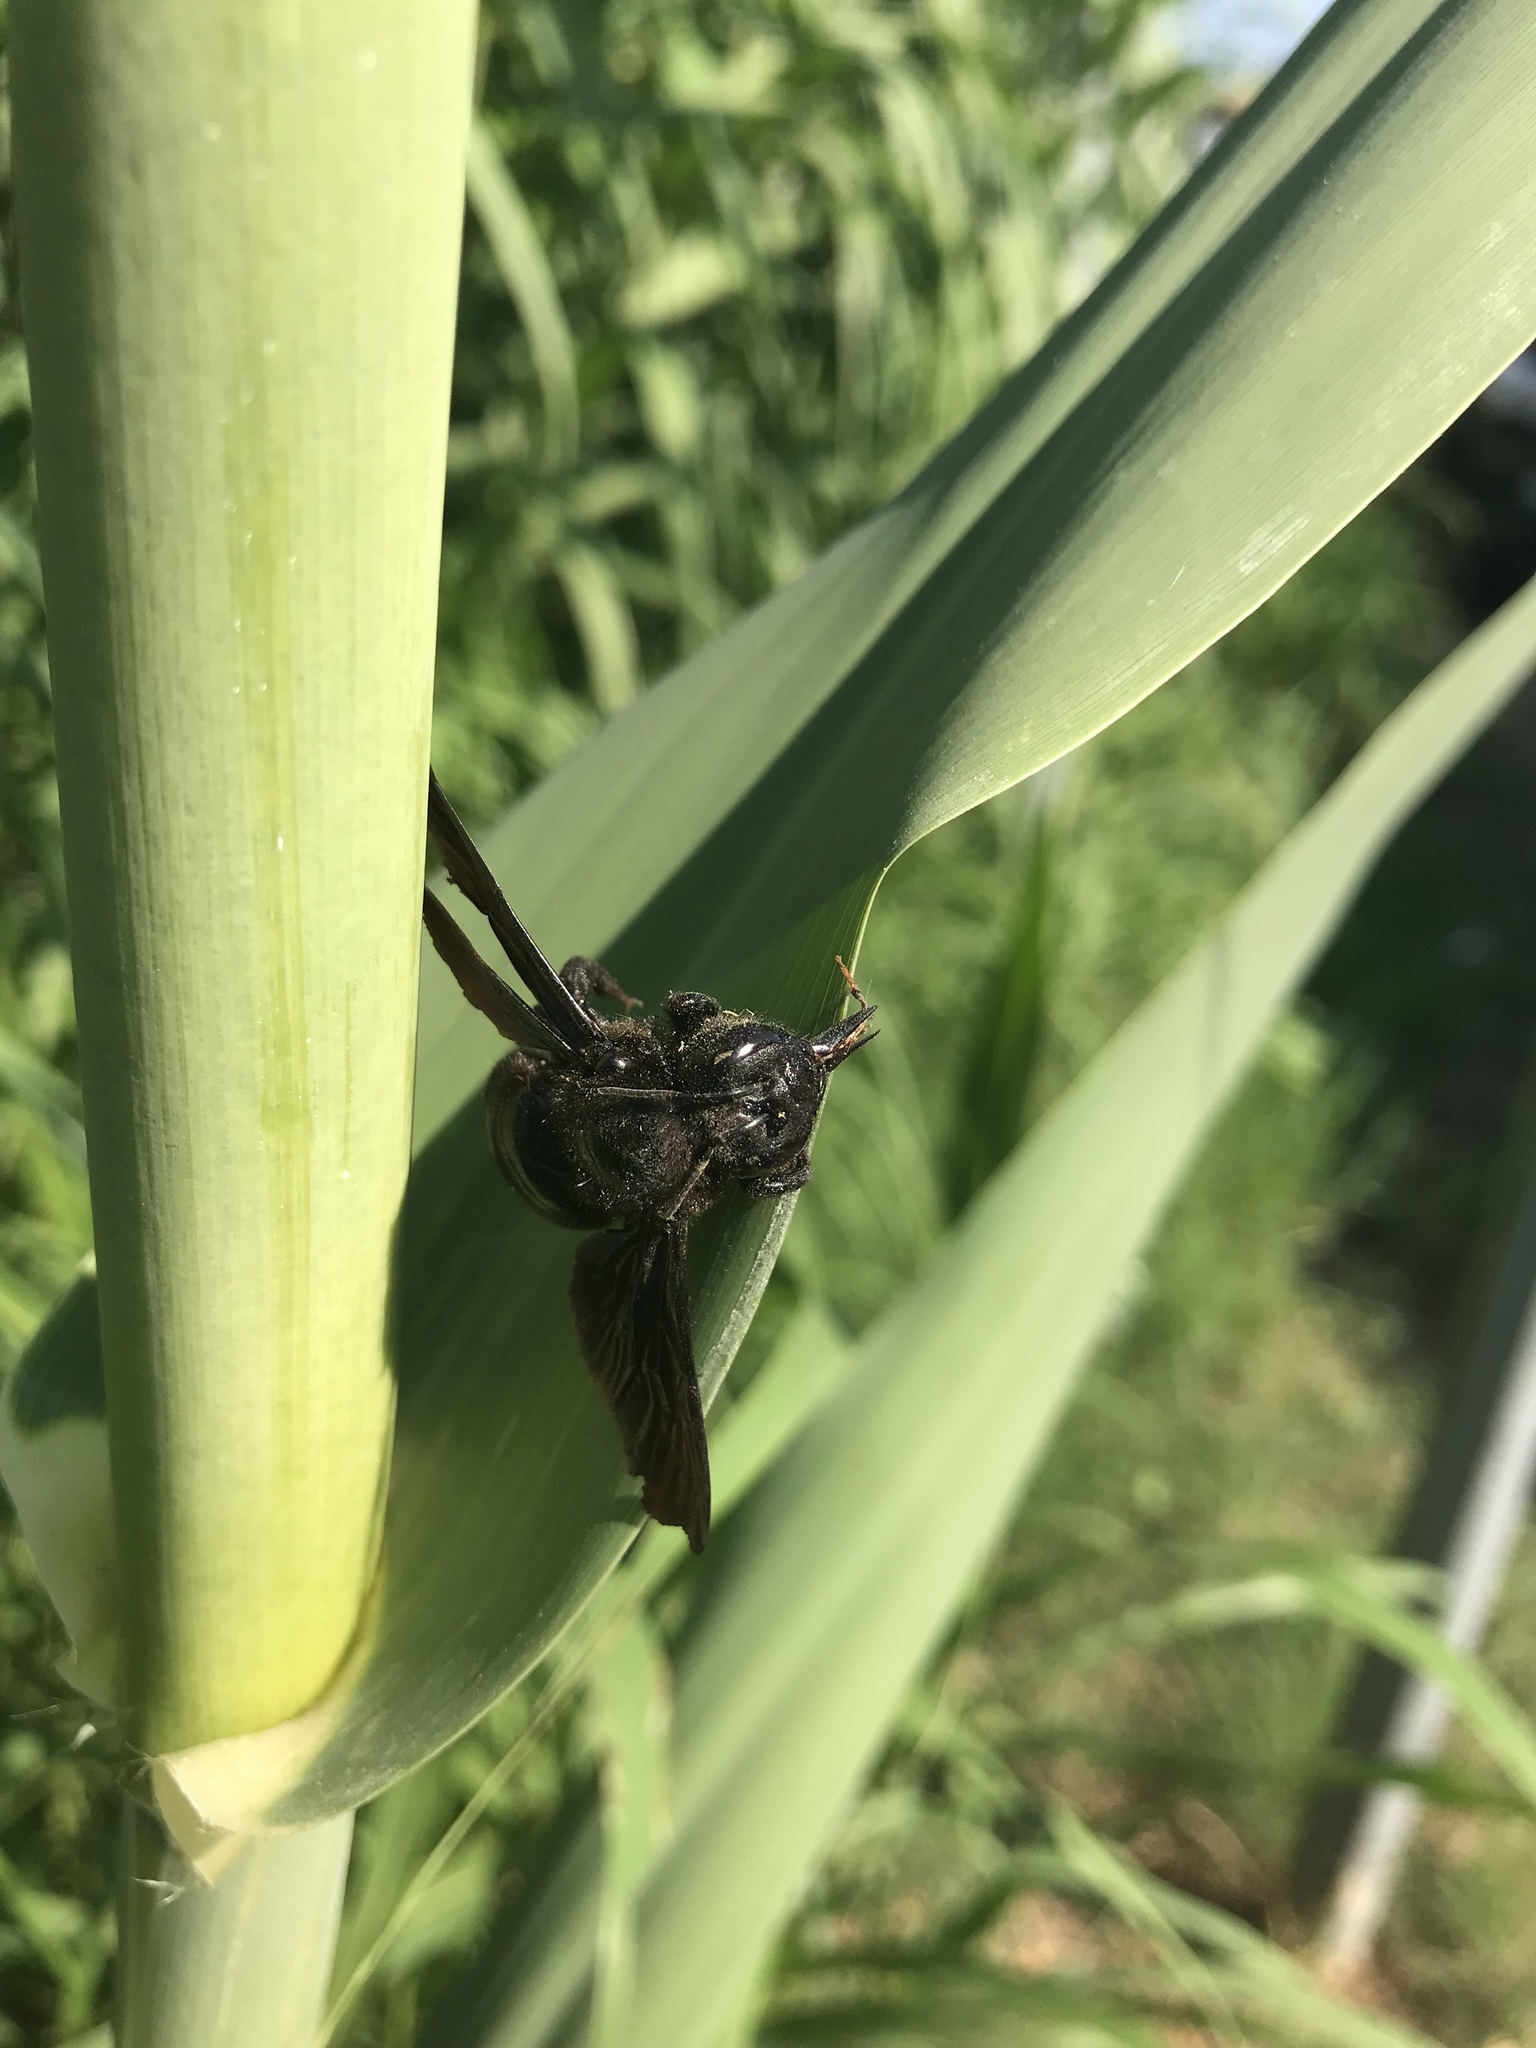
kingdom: Animalia
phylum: Arthropoda
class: Insecta
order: Hymenoptera
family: Apidae
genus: Xylocopa
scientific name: Xylocopa violacea
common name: Violet carpenter bee
